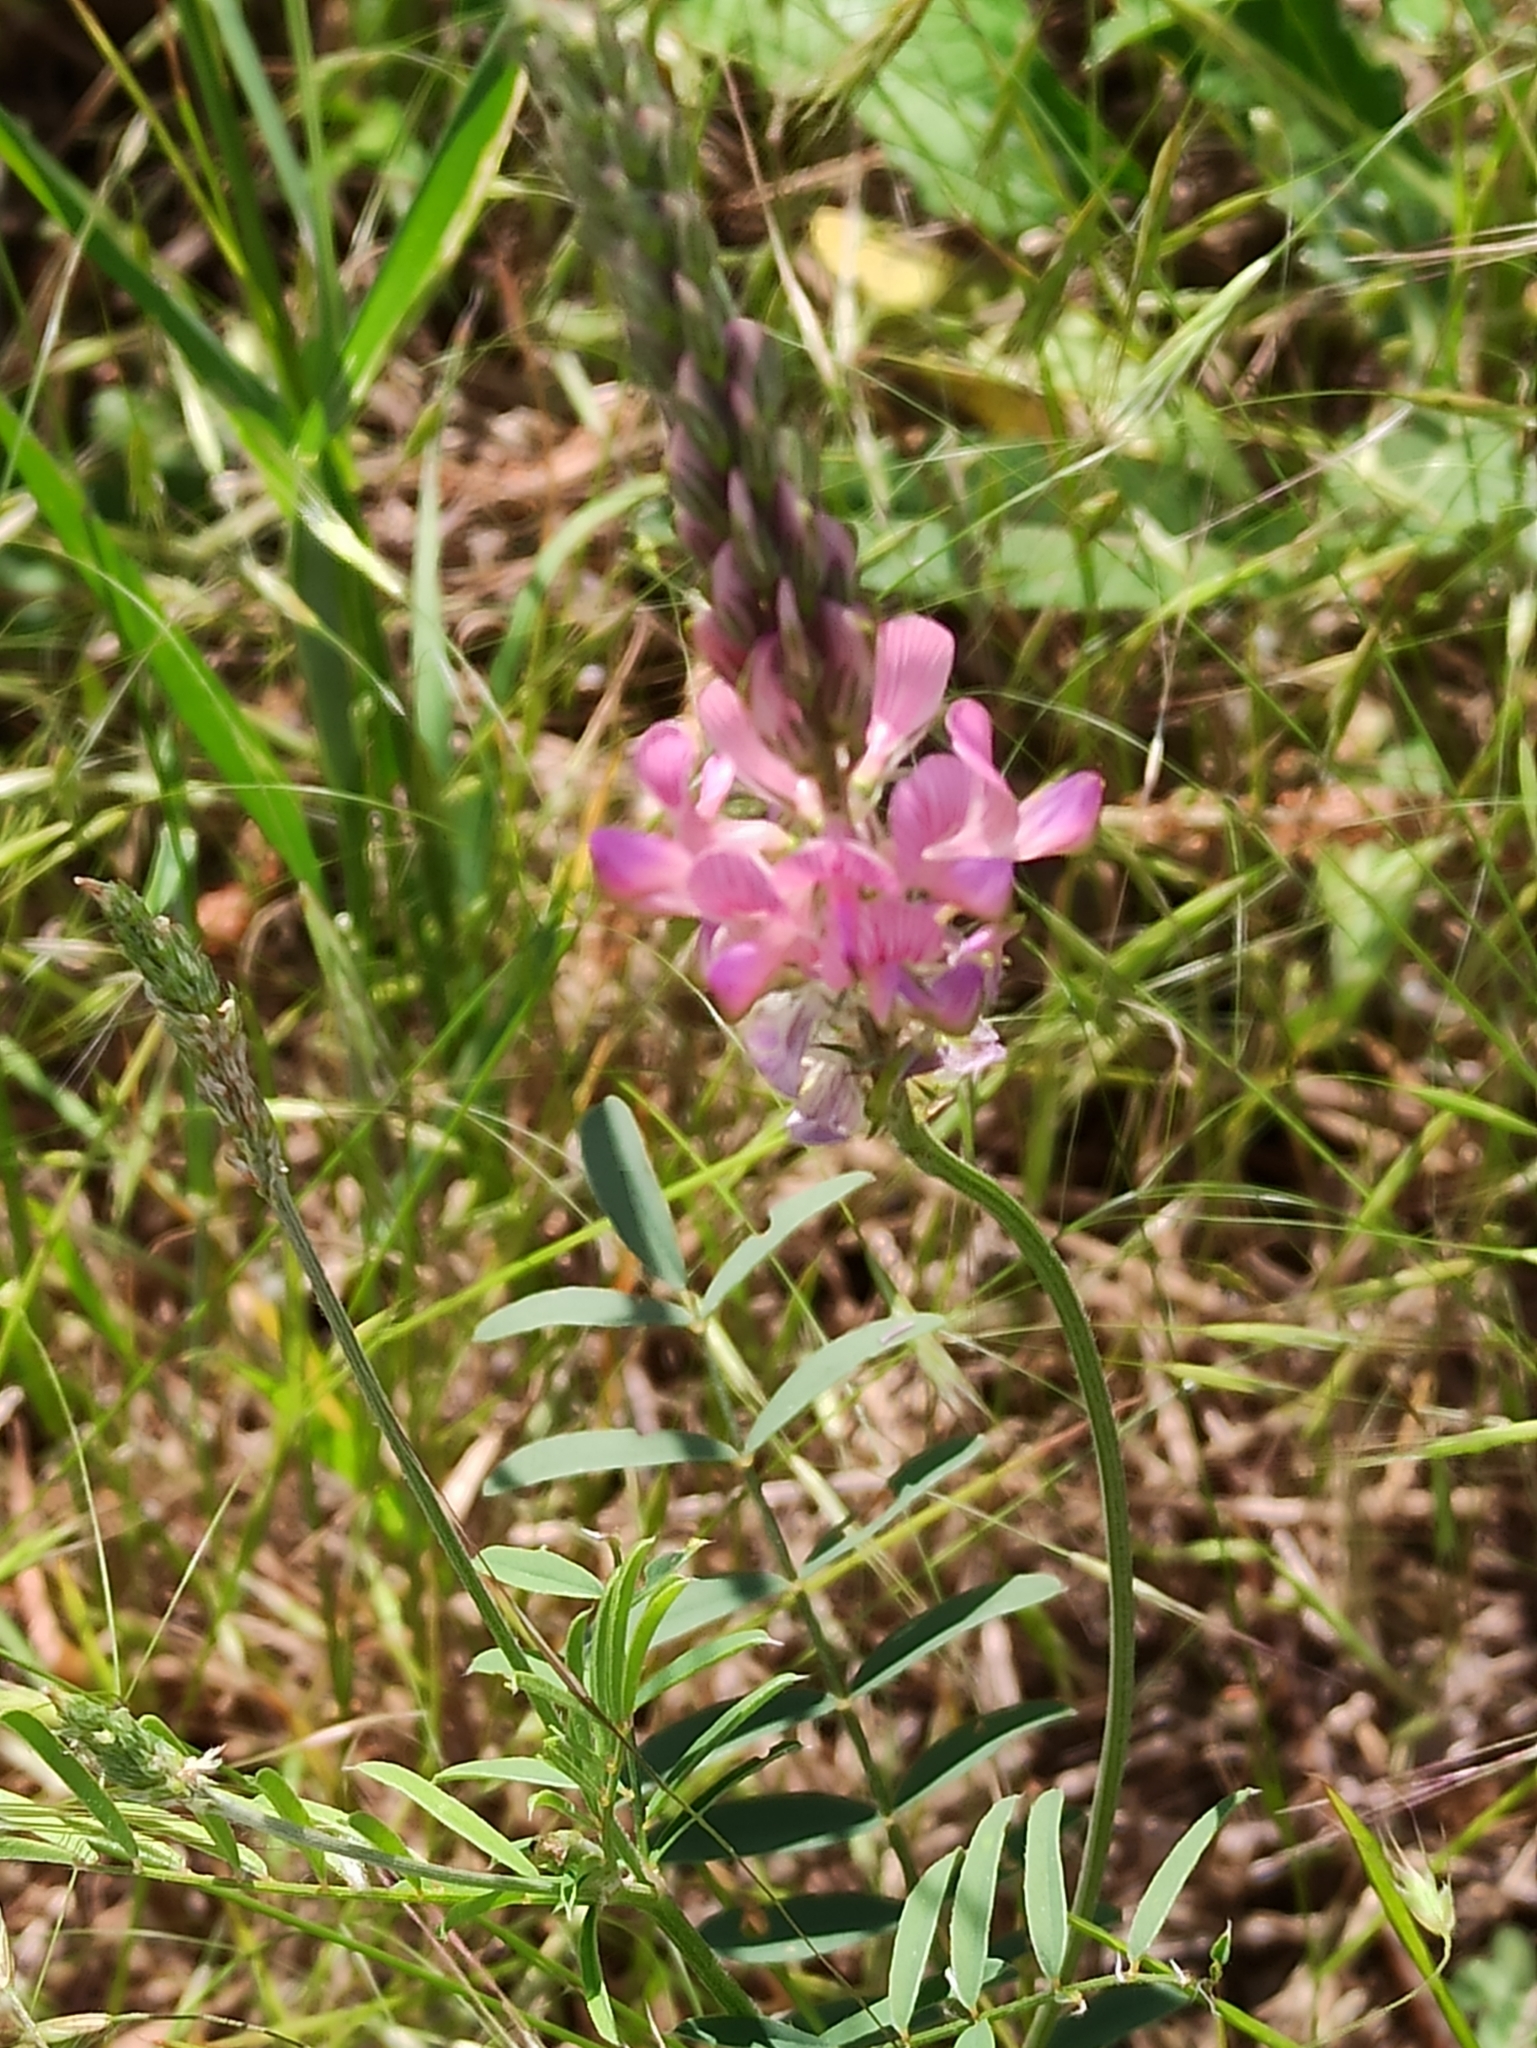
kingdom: Plantae
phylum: Tracheophyta
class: Magnoliopsida
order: Fabales
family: Fabaceae
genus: Onobrychis
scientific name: Onobrychis viciifolia
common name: Sainfoin
